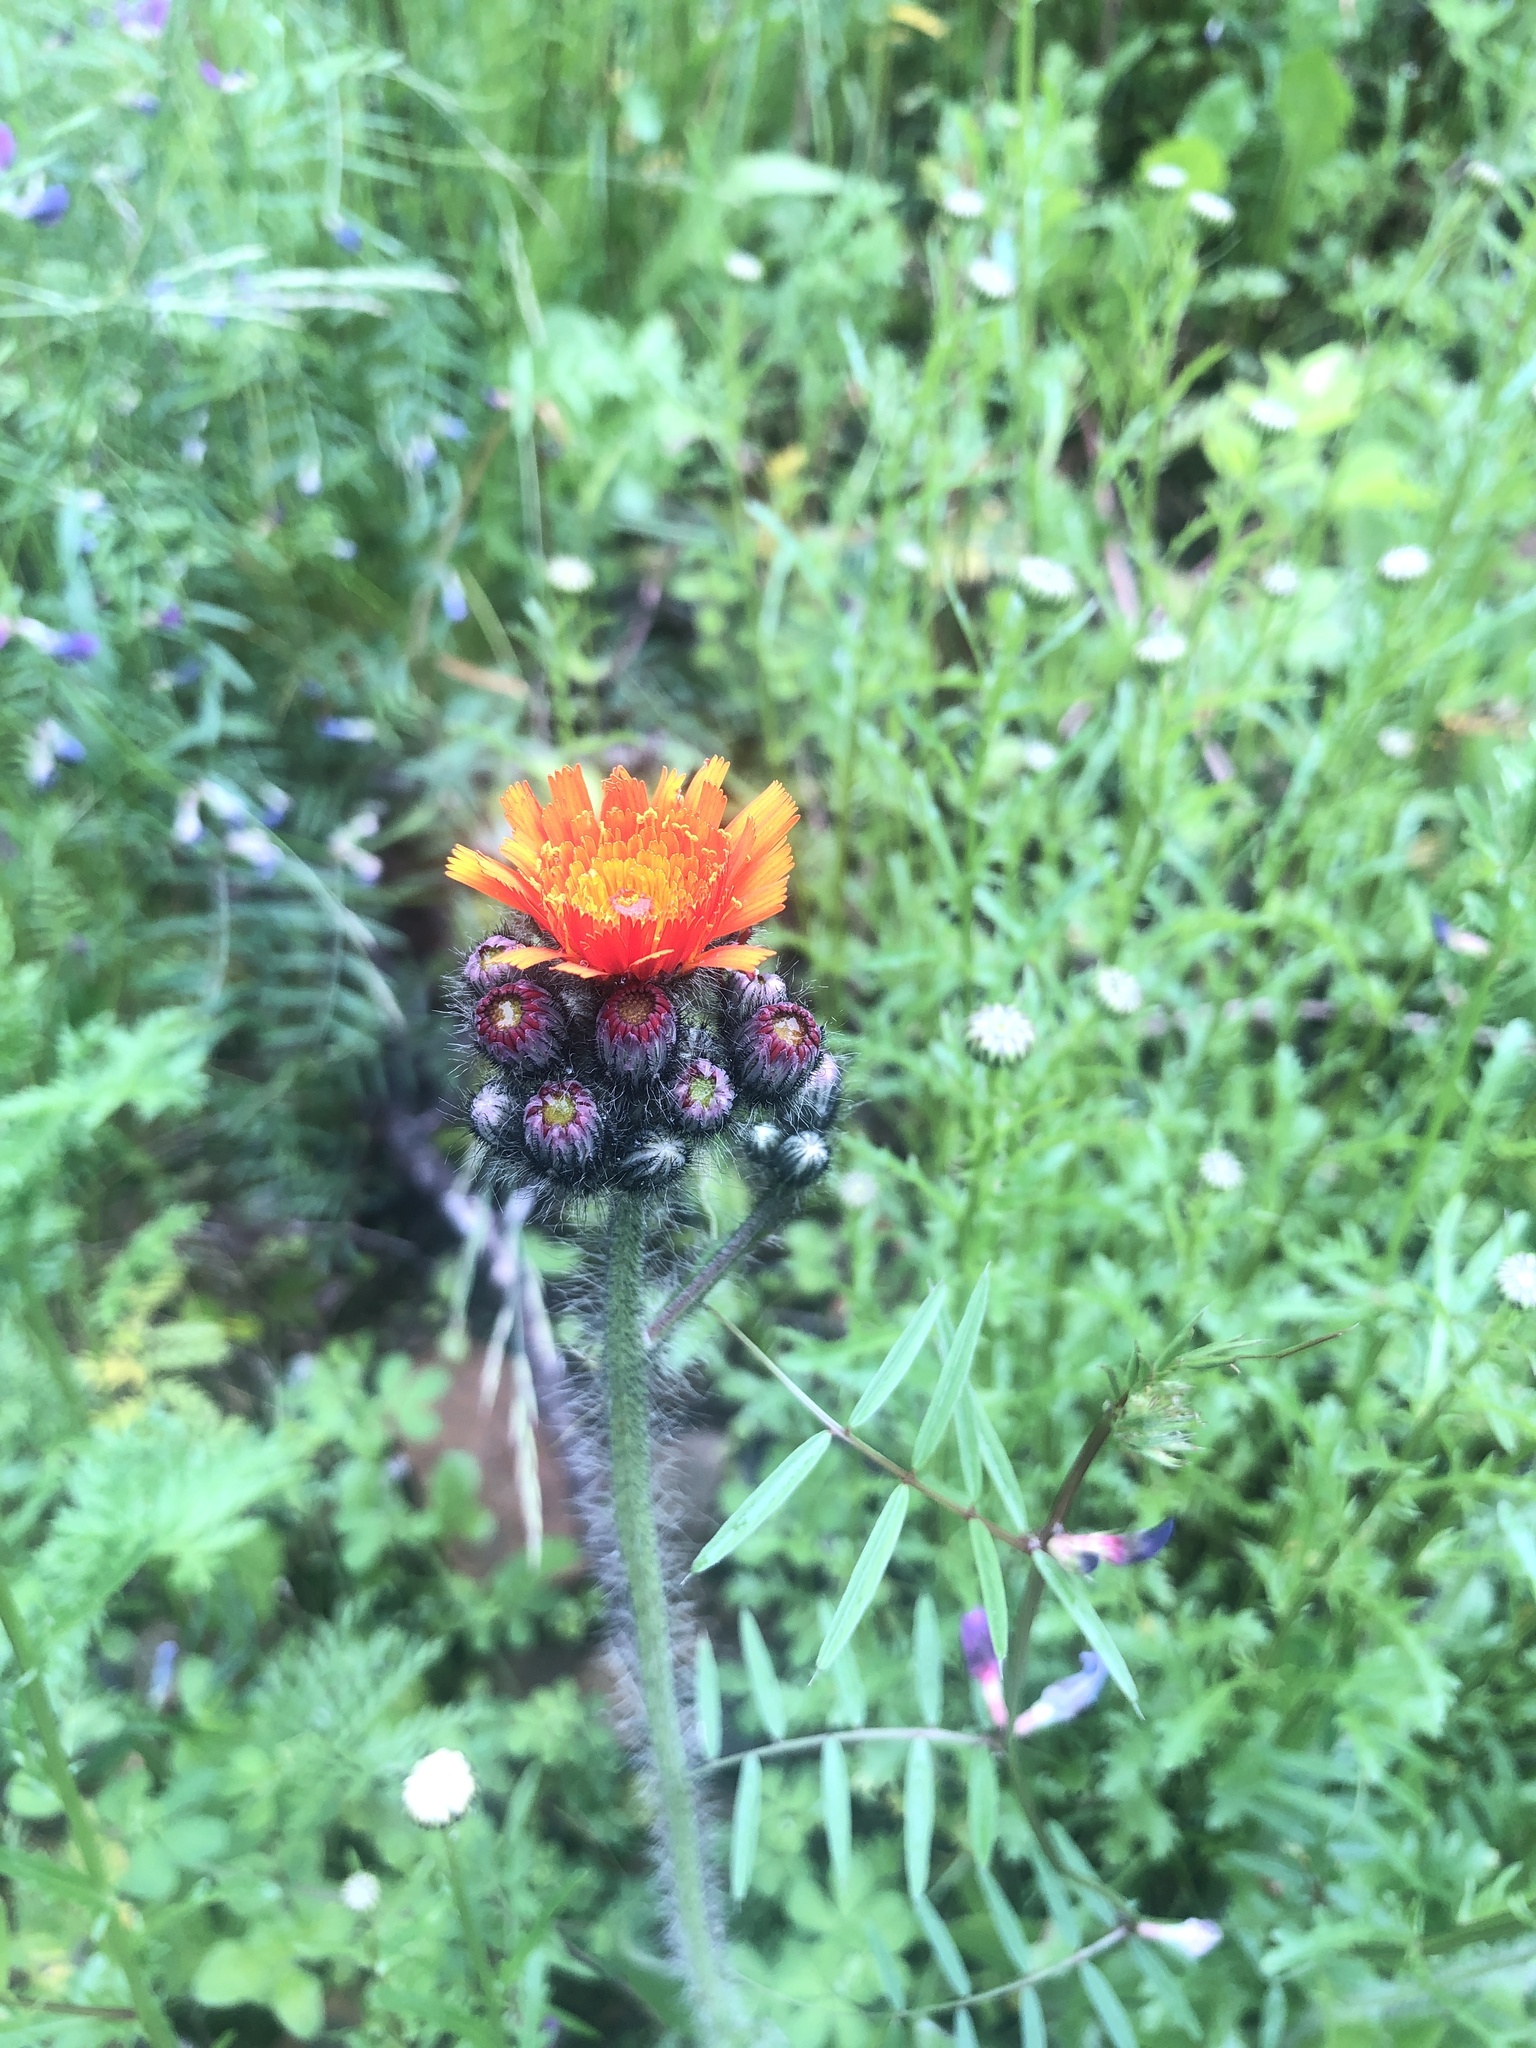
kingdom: Plantae
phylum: Tracheophyta
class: Magnoliopsida
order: Asterales
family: Asteraceae
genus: Pilosella
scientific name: Pilosella aurantiaca
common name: Fox-and-cubs
